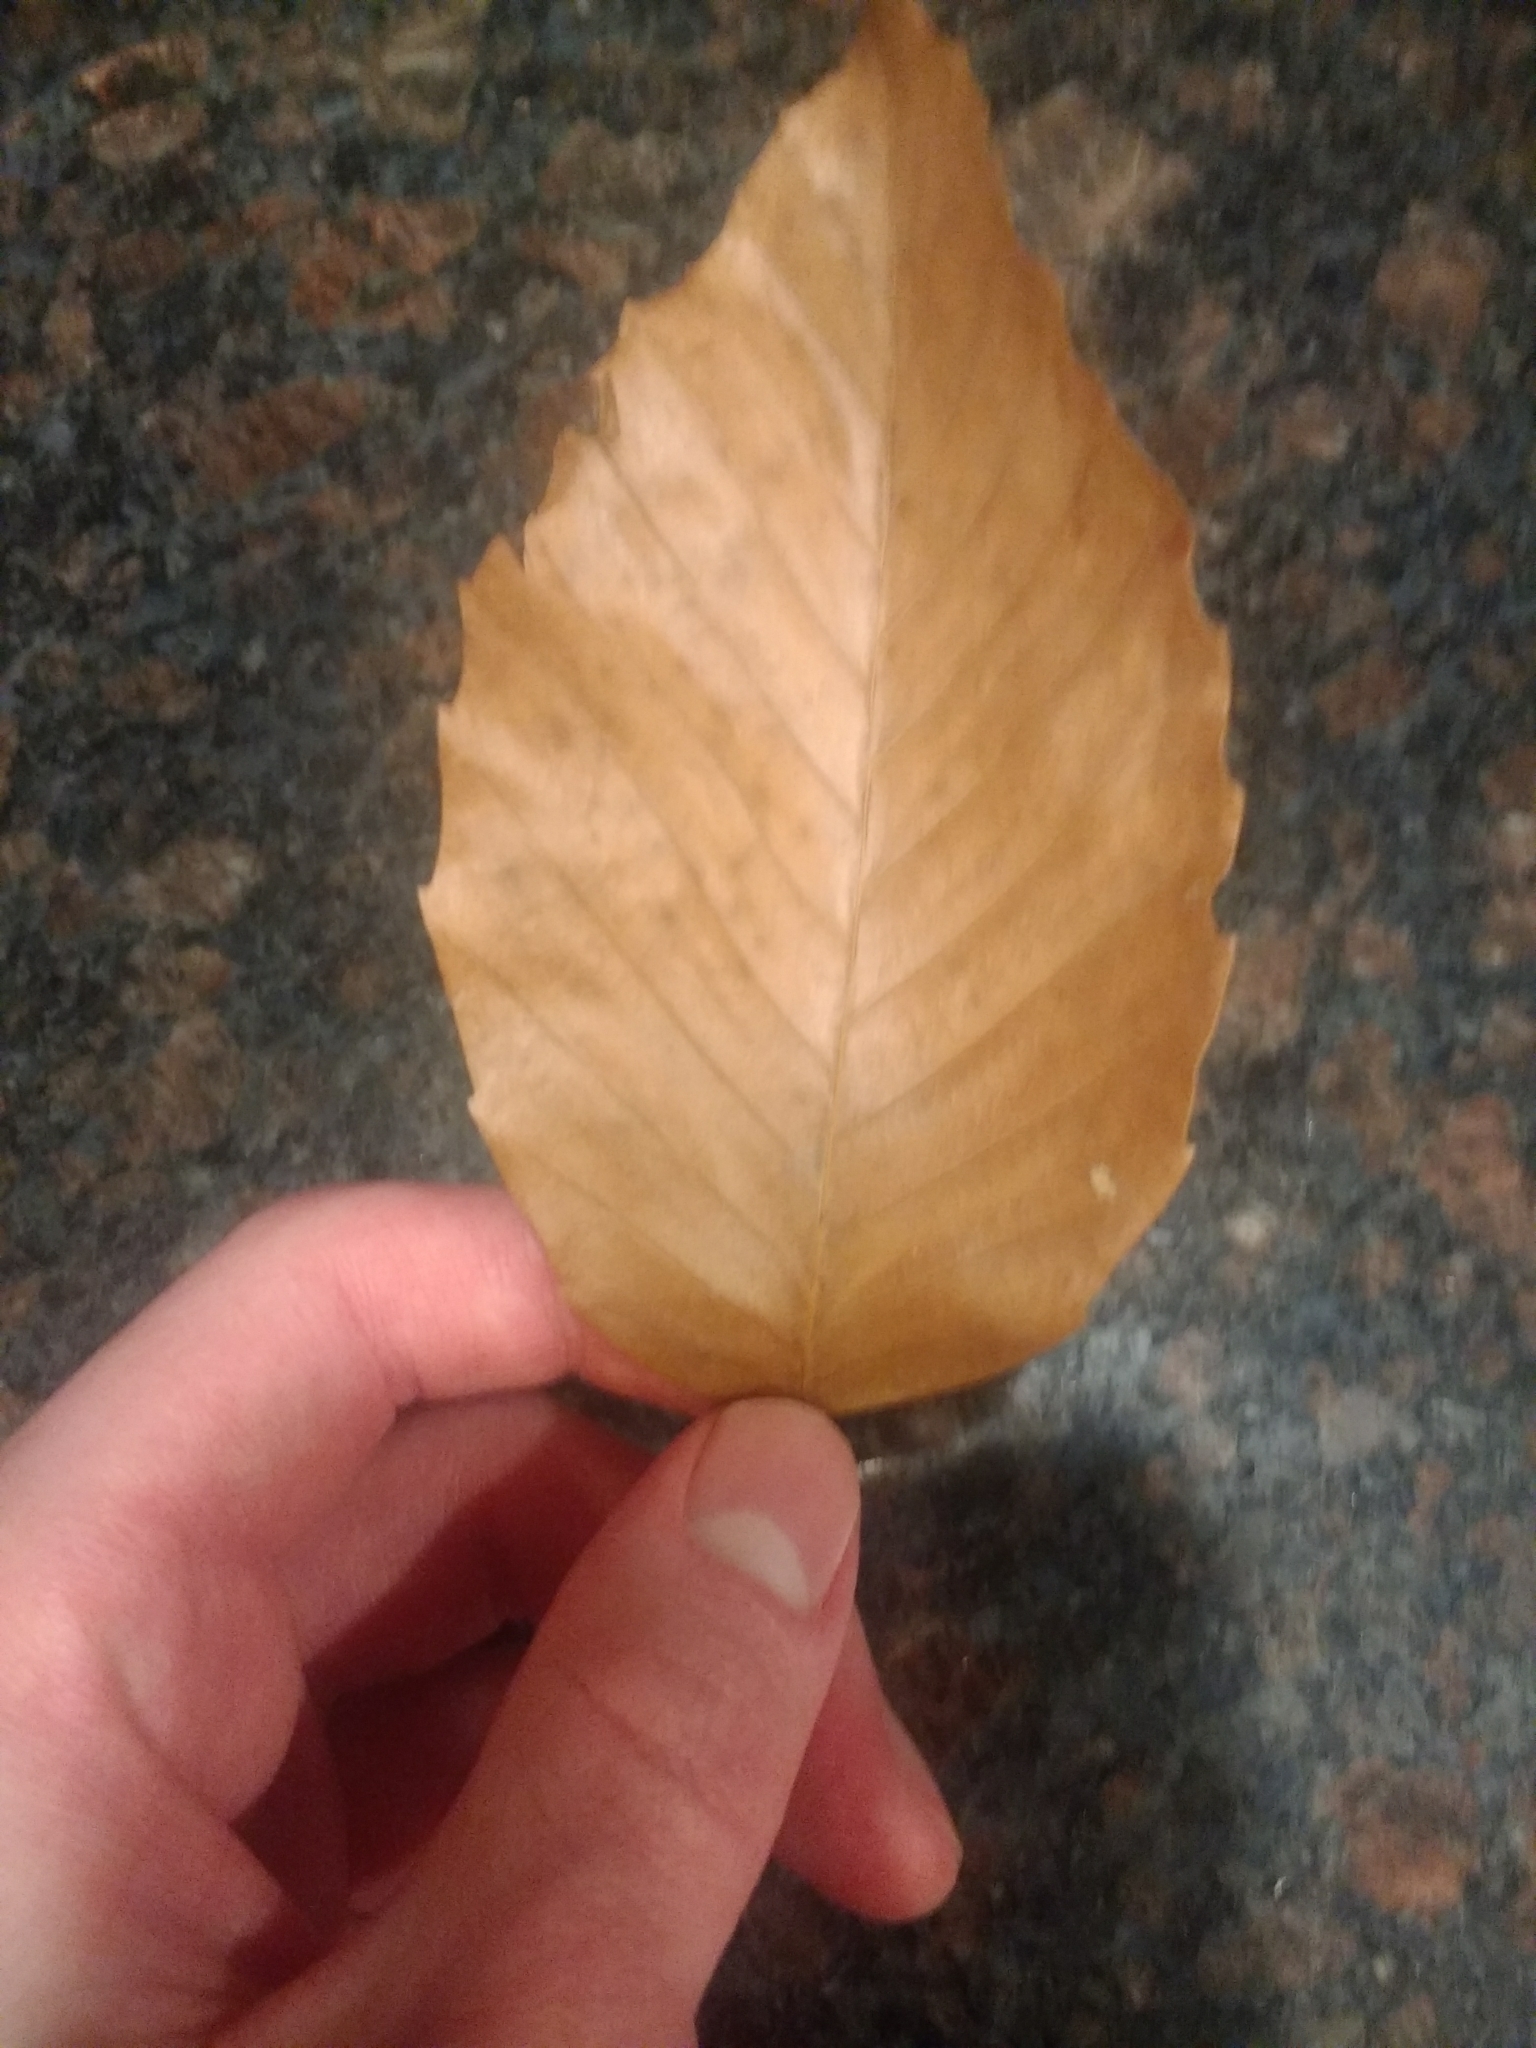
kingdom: Plantae
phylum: Tracheophyta
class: Magnoliopsida
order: Fagales
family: Fagaceae
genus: Fagus
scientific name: Fagus grandifolia
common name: American beech
